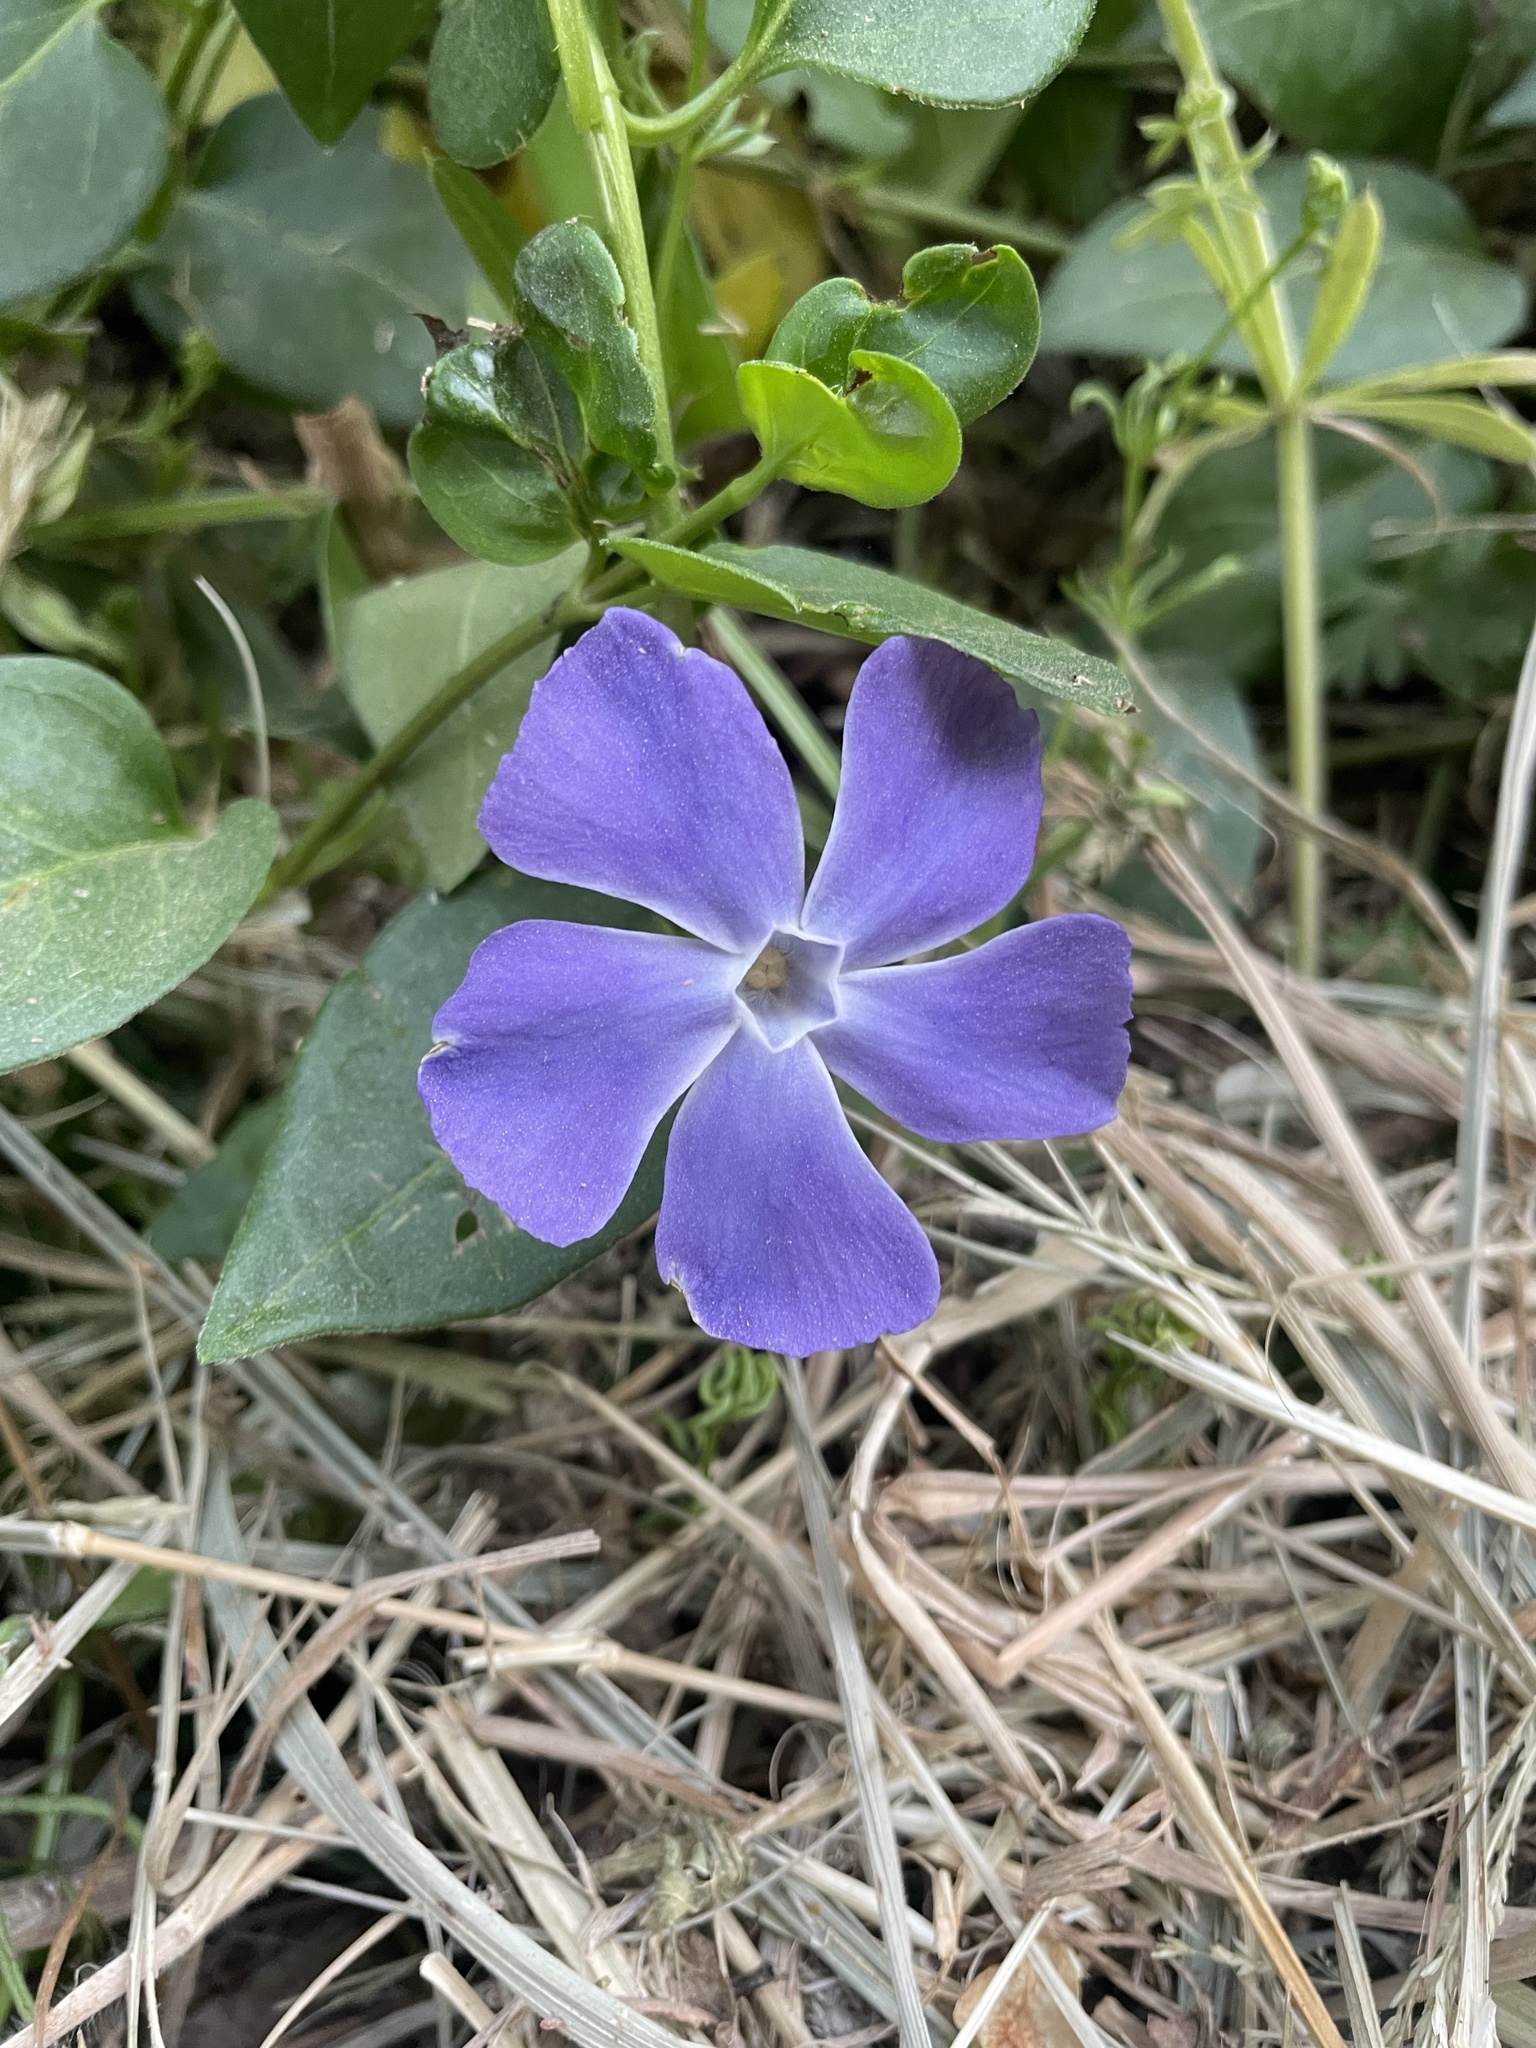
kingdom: Plantae
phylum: Tracheophyta
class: Magnoliopsida
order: Gentianales
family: Apocynaceae
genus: Vinca
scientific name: Vinca major
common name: Greater periwinkle
